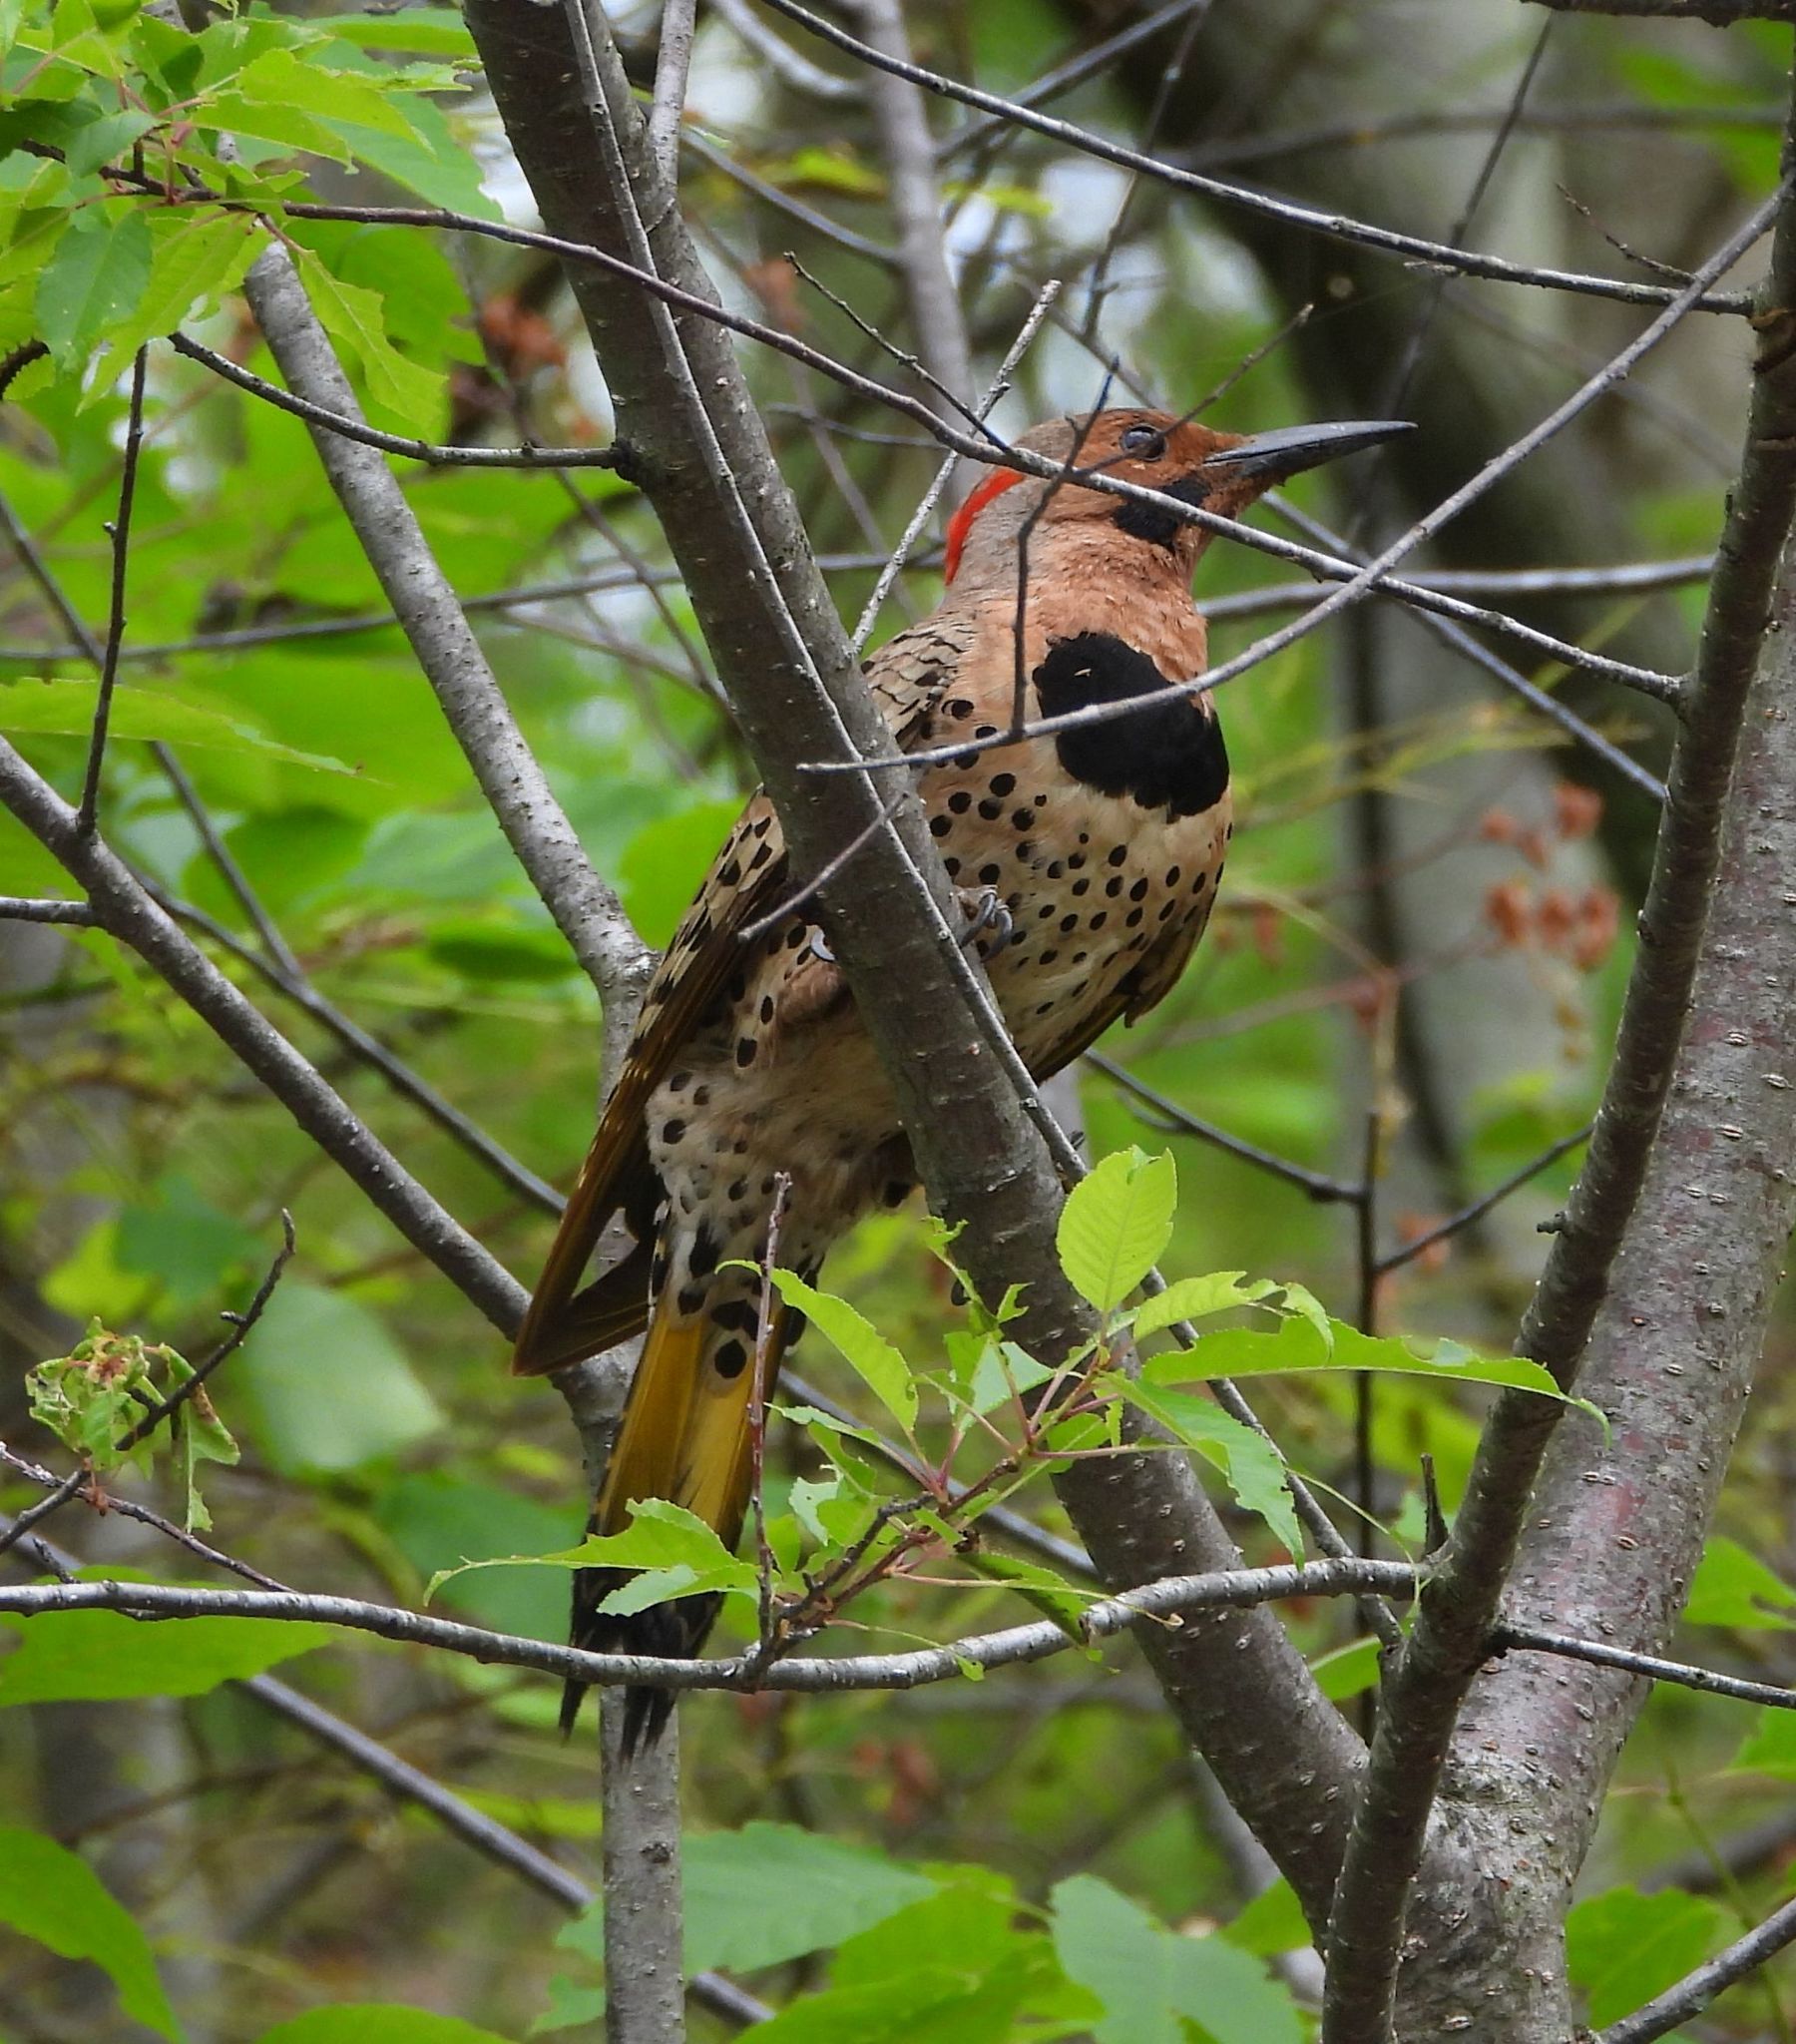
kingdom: Animalia
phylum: Chordata
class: Aves
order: Piciformes
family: Picidae
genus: Colaptes
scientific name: Colaptes auratus
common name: Northern flicker
